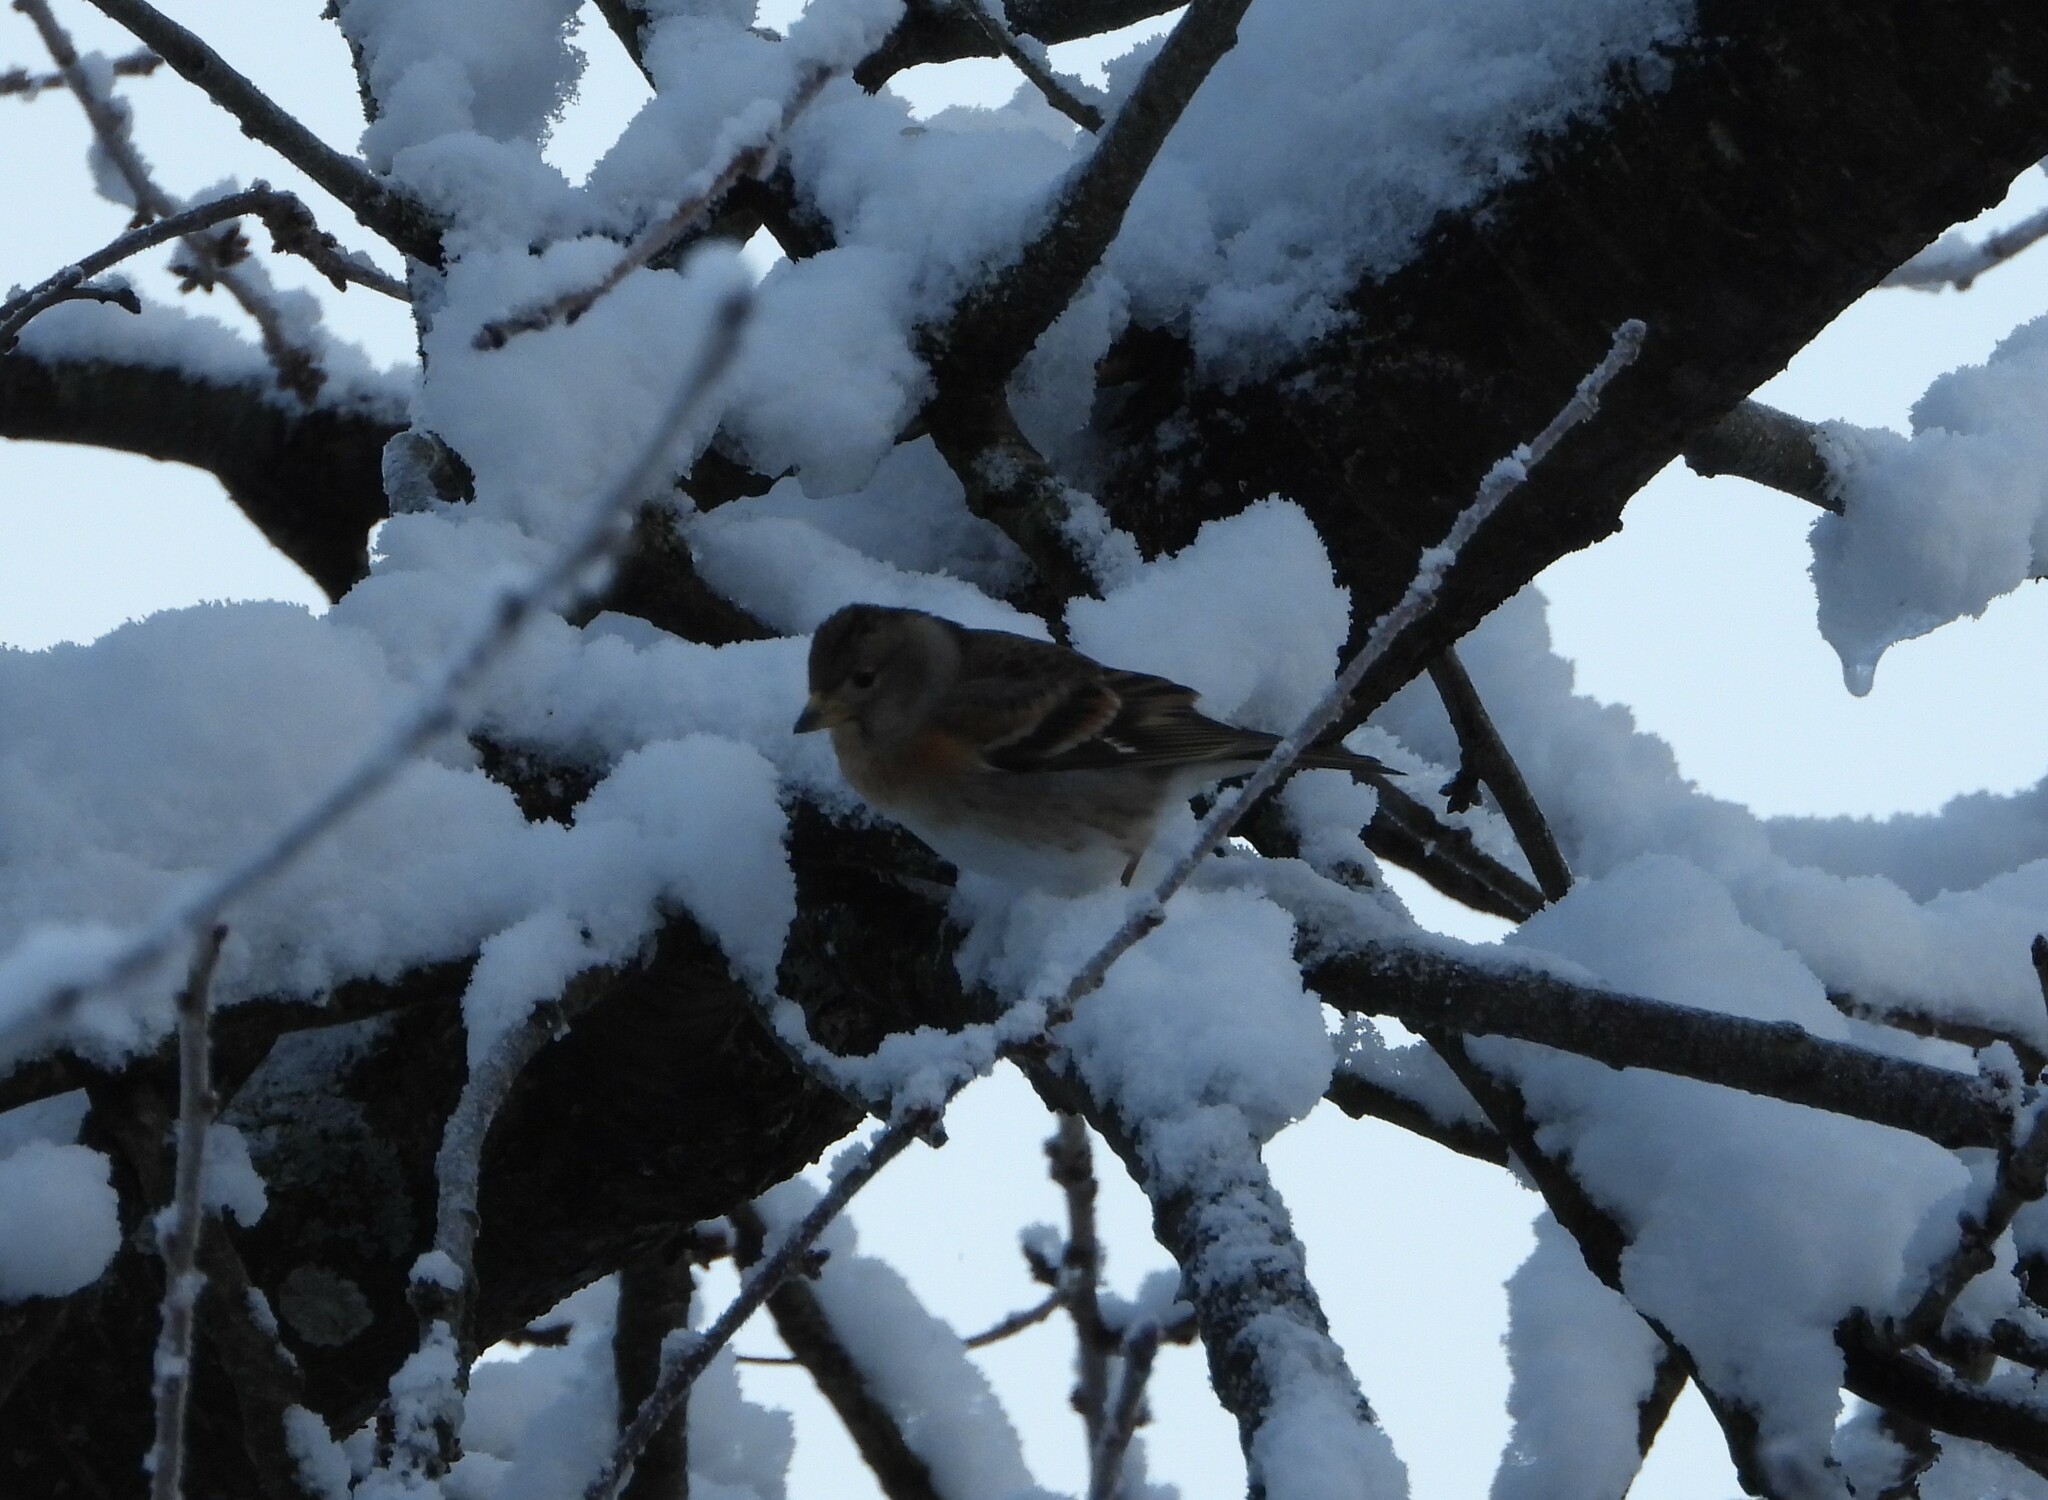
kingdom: Animalia
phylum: Chordata
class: Aves
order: Passeriformes
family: Fringillidae
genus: Fringilla
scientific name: Fringilla montifringilla
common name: Brambling
